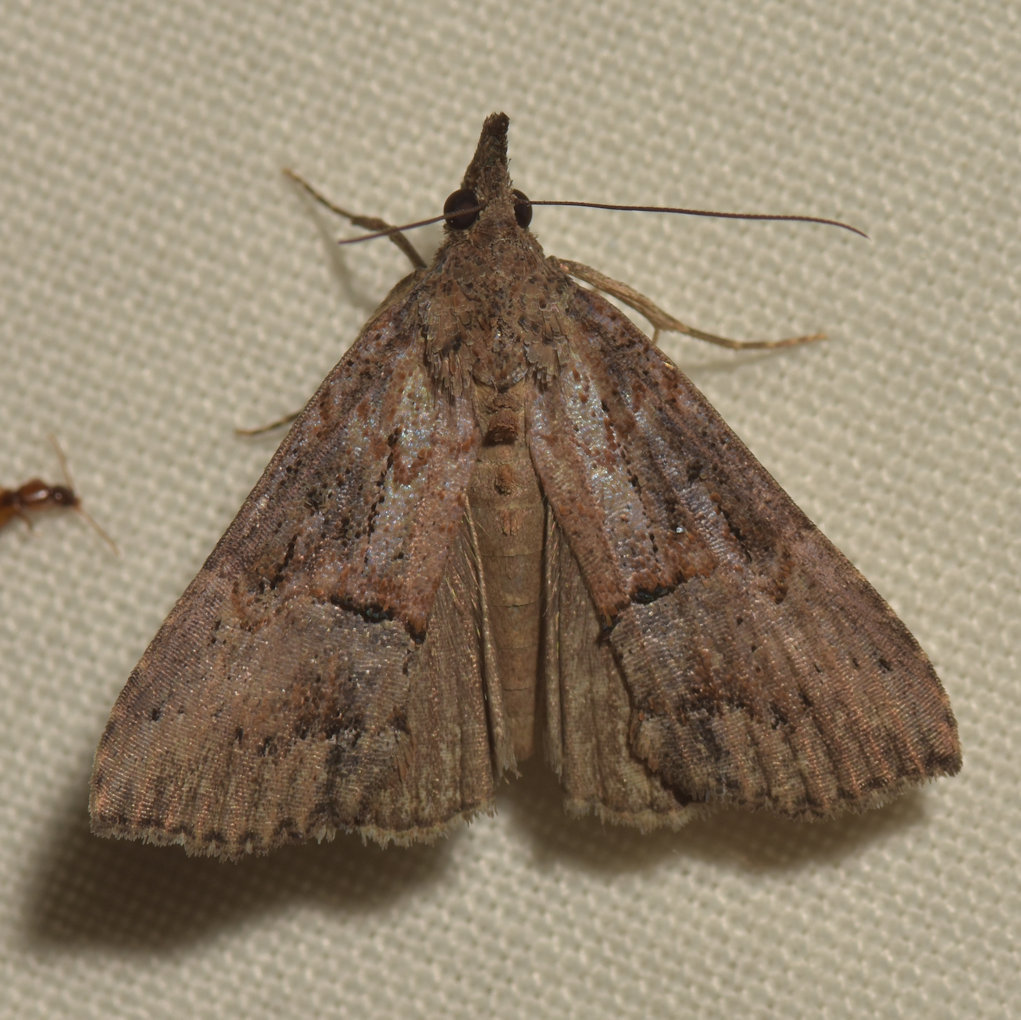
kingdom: Animalia
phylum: Arthropoda
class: Insecta
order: Lepidoptera
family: Erebidae
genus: Hypena
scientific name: Hypena scabra
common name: Green cloverworm
